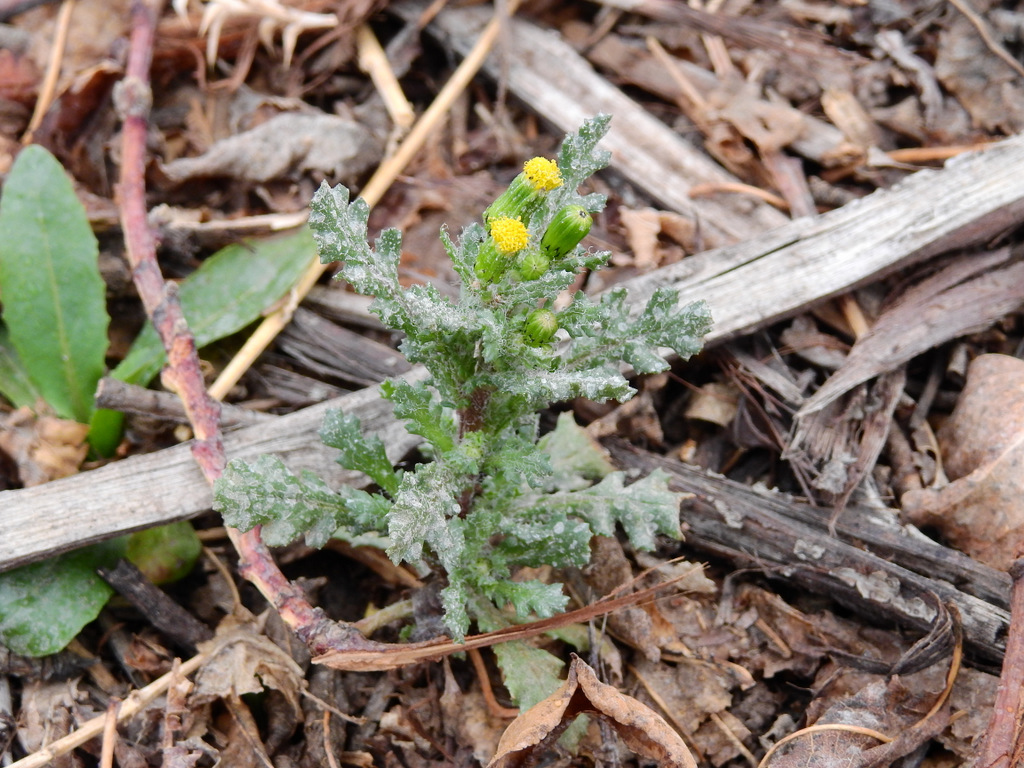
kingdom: Plantae
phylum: Tracheophyta
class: Magnoliopsida
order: Asterales
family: Asteraceae
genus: Senecio
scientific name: Senecio vulgaris
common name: Old-man-in-the-spring
